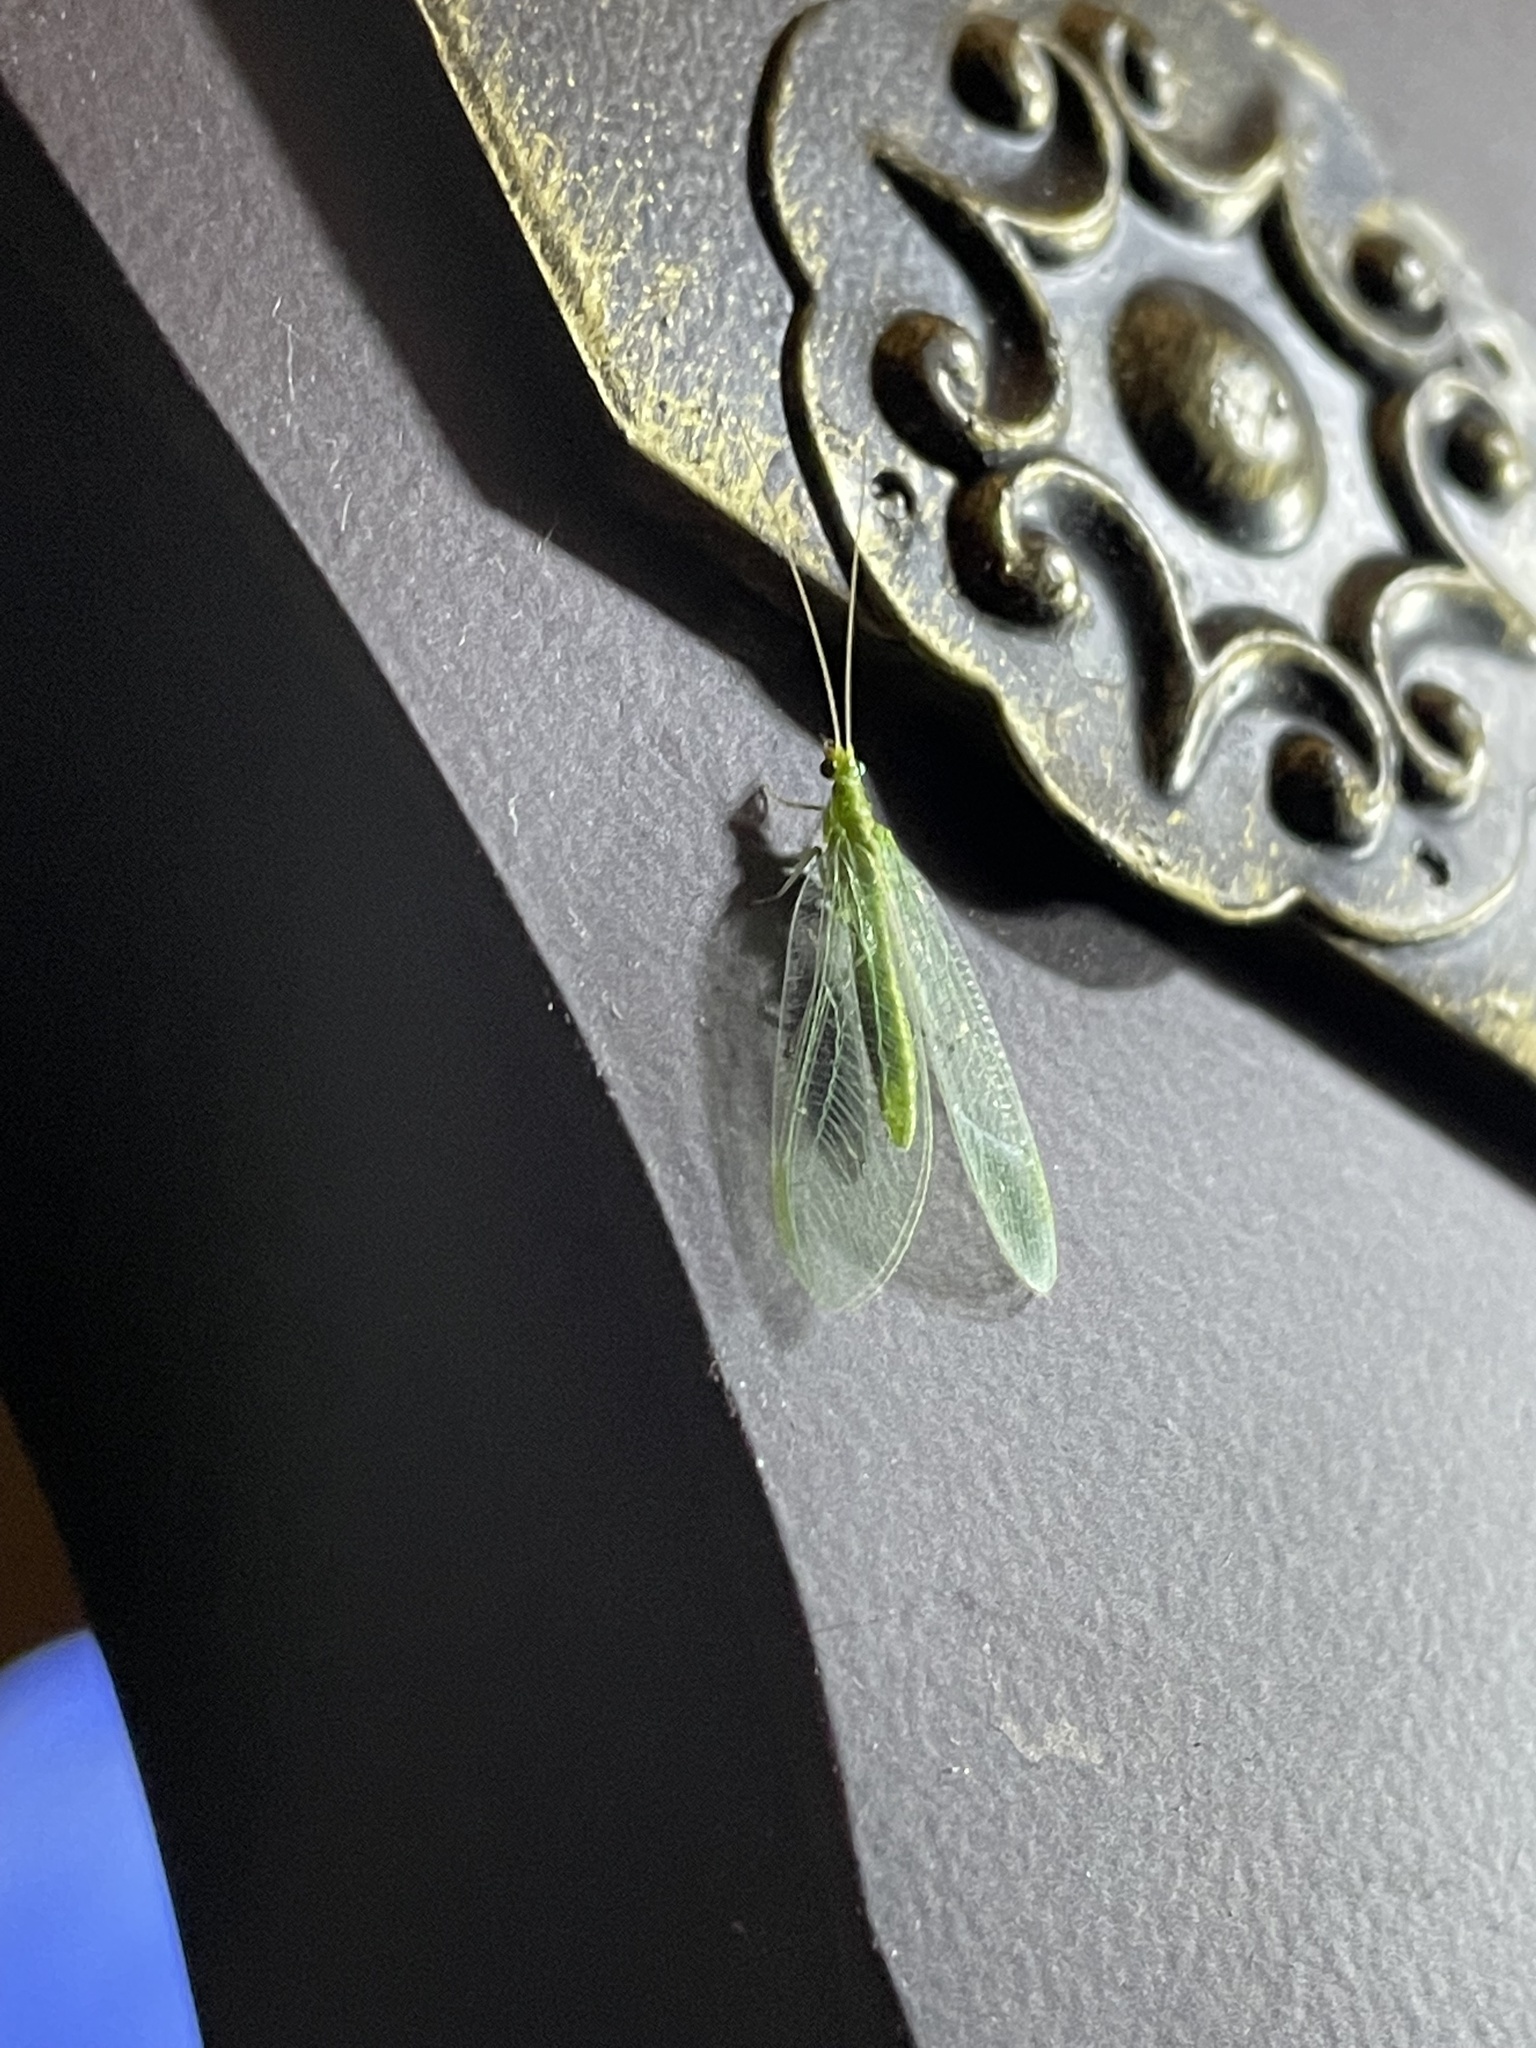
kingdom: Animalia
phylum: Arthropoda
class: Insecta
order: Neuroptera
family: Chrysopidae
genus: Chrysoperla
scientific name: Chrysoperla
